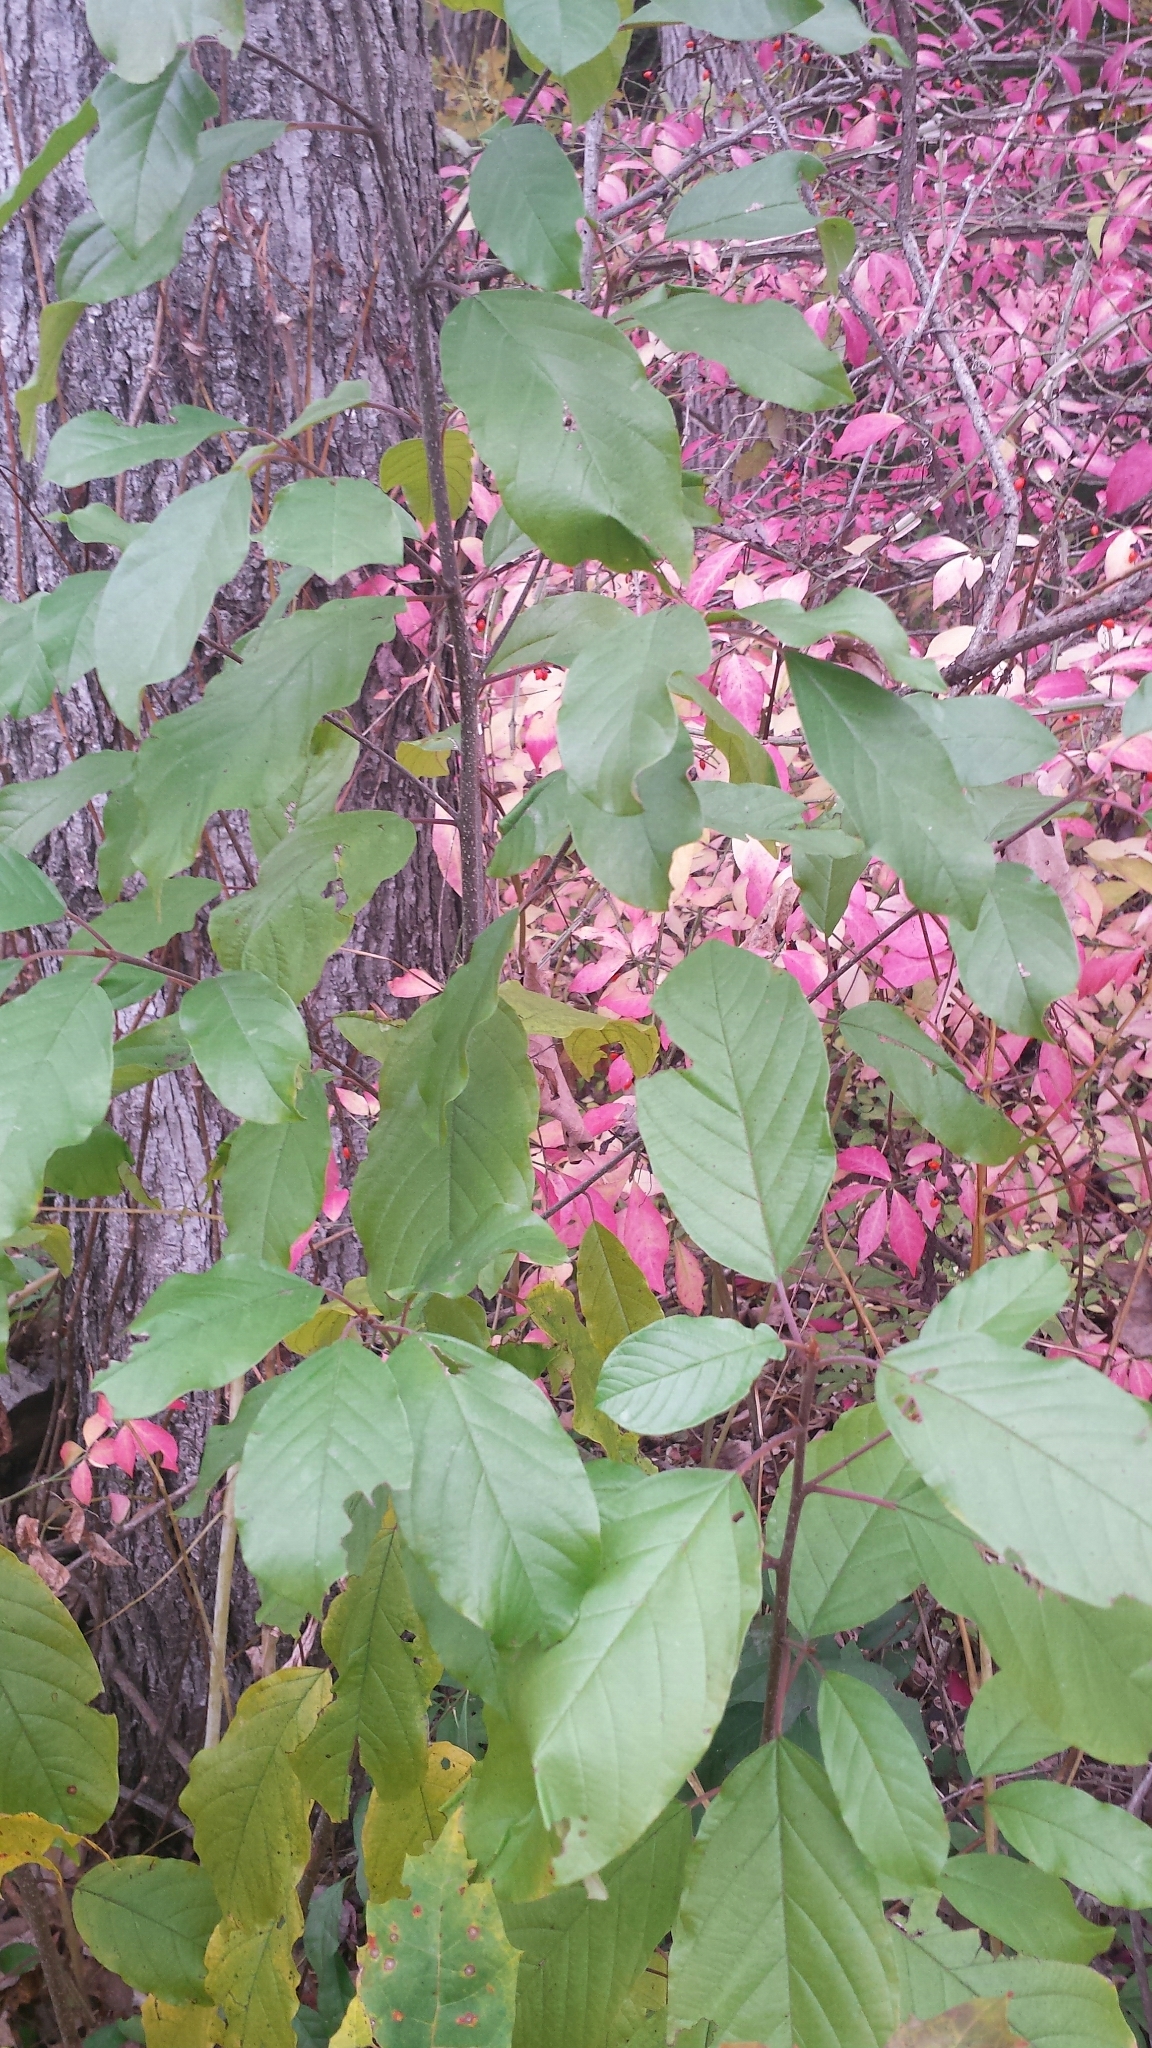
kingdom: Plantae
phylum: Tracheophyta
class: Magnoliopsida
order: Rosales
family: Rhamnaceae
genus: Frangula
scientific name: Frangula alnus
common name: Alder buckthorn
